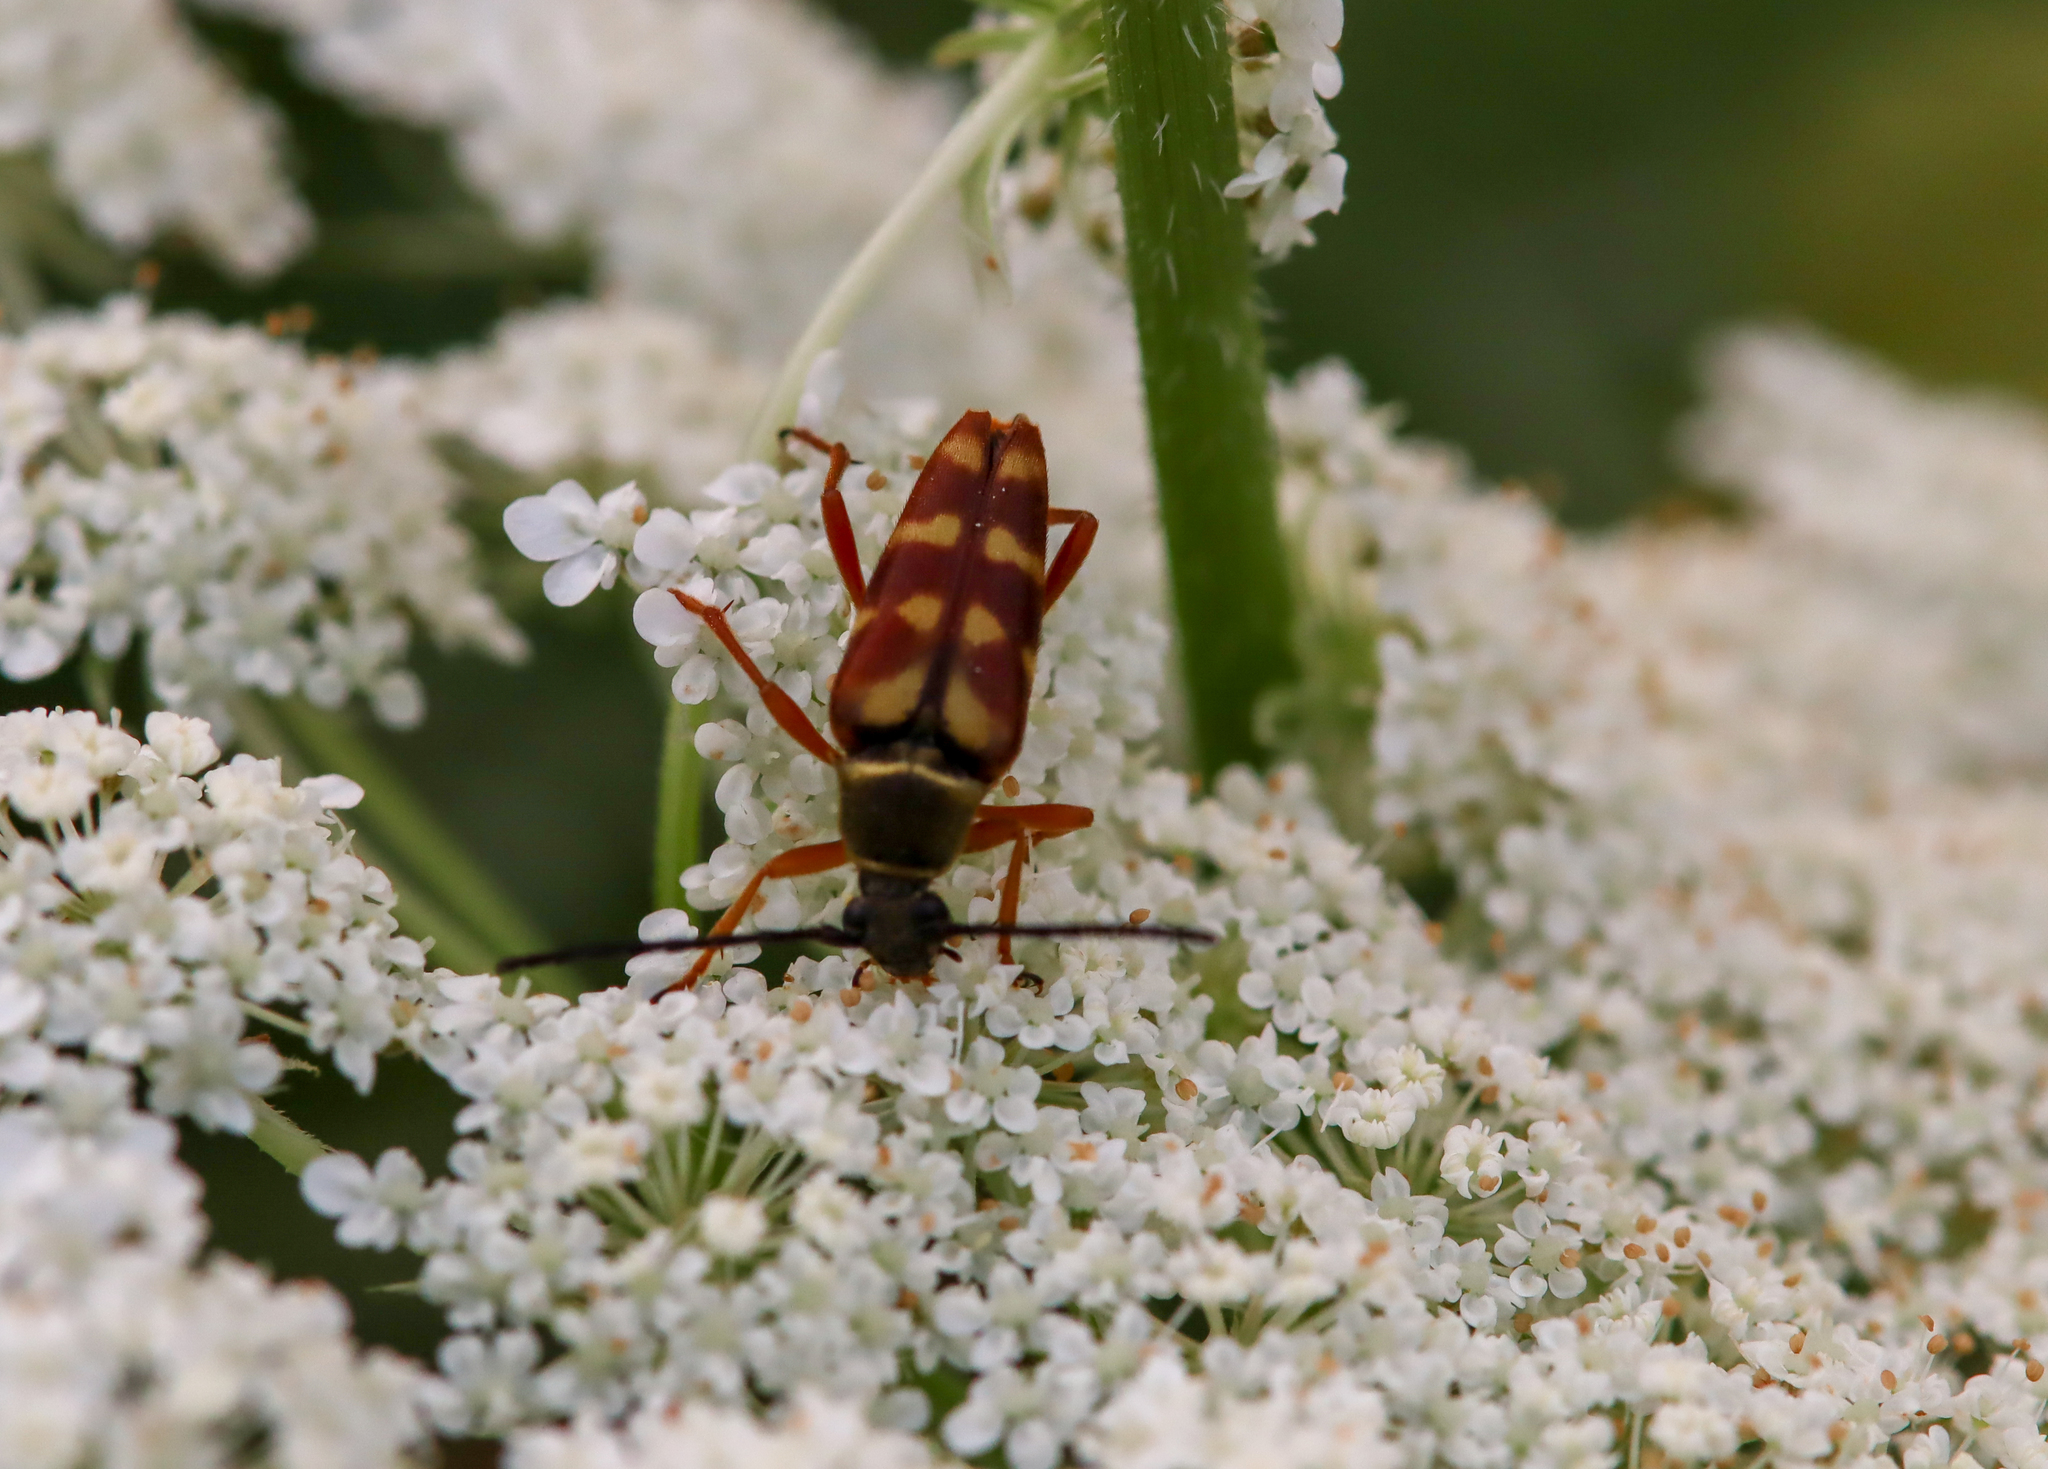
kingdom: Animalia
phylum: Arthropoda
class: Insecta
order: Coleoptera
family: Cerambycidae
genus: Typocerus
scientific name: Typocerus velutinus
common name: Banded longhorn beetle
